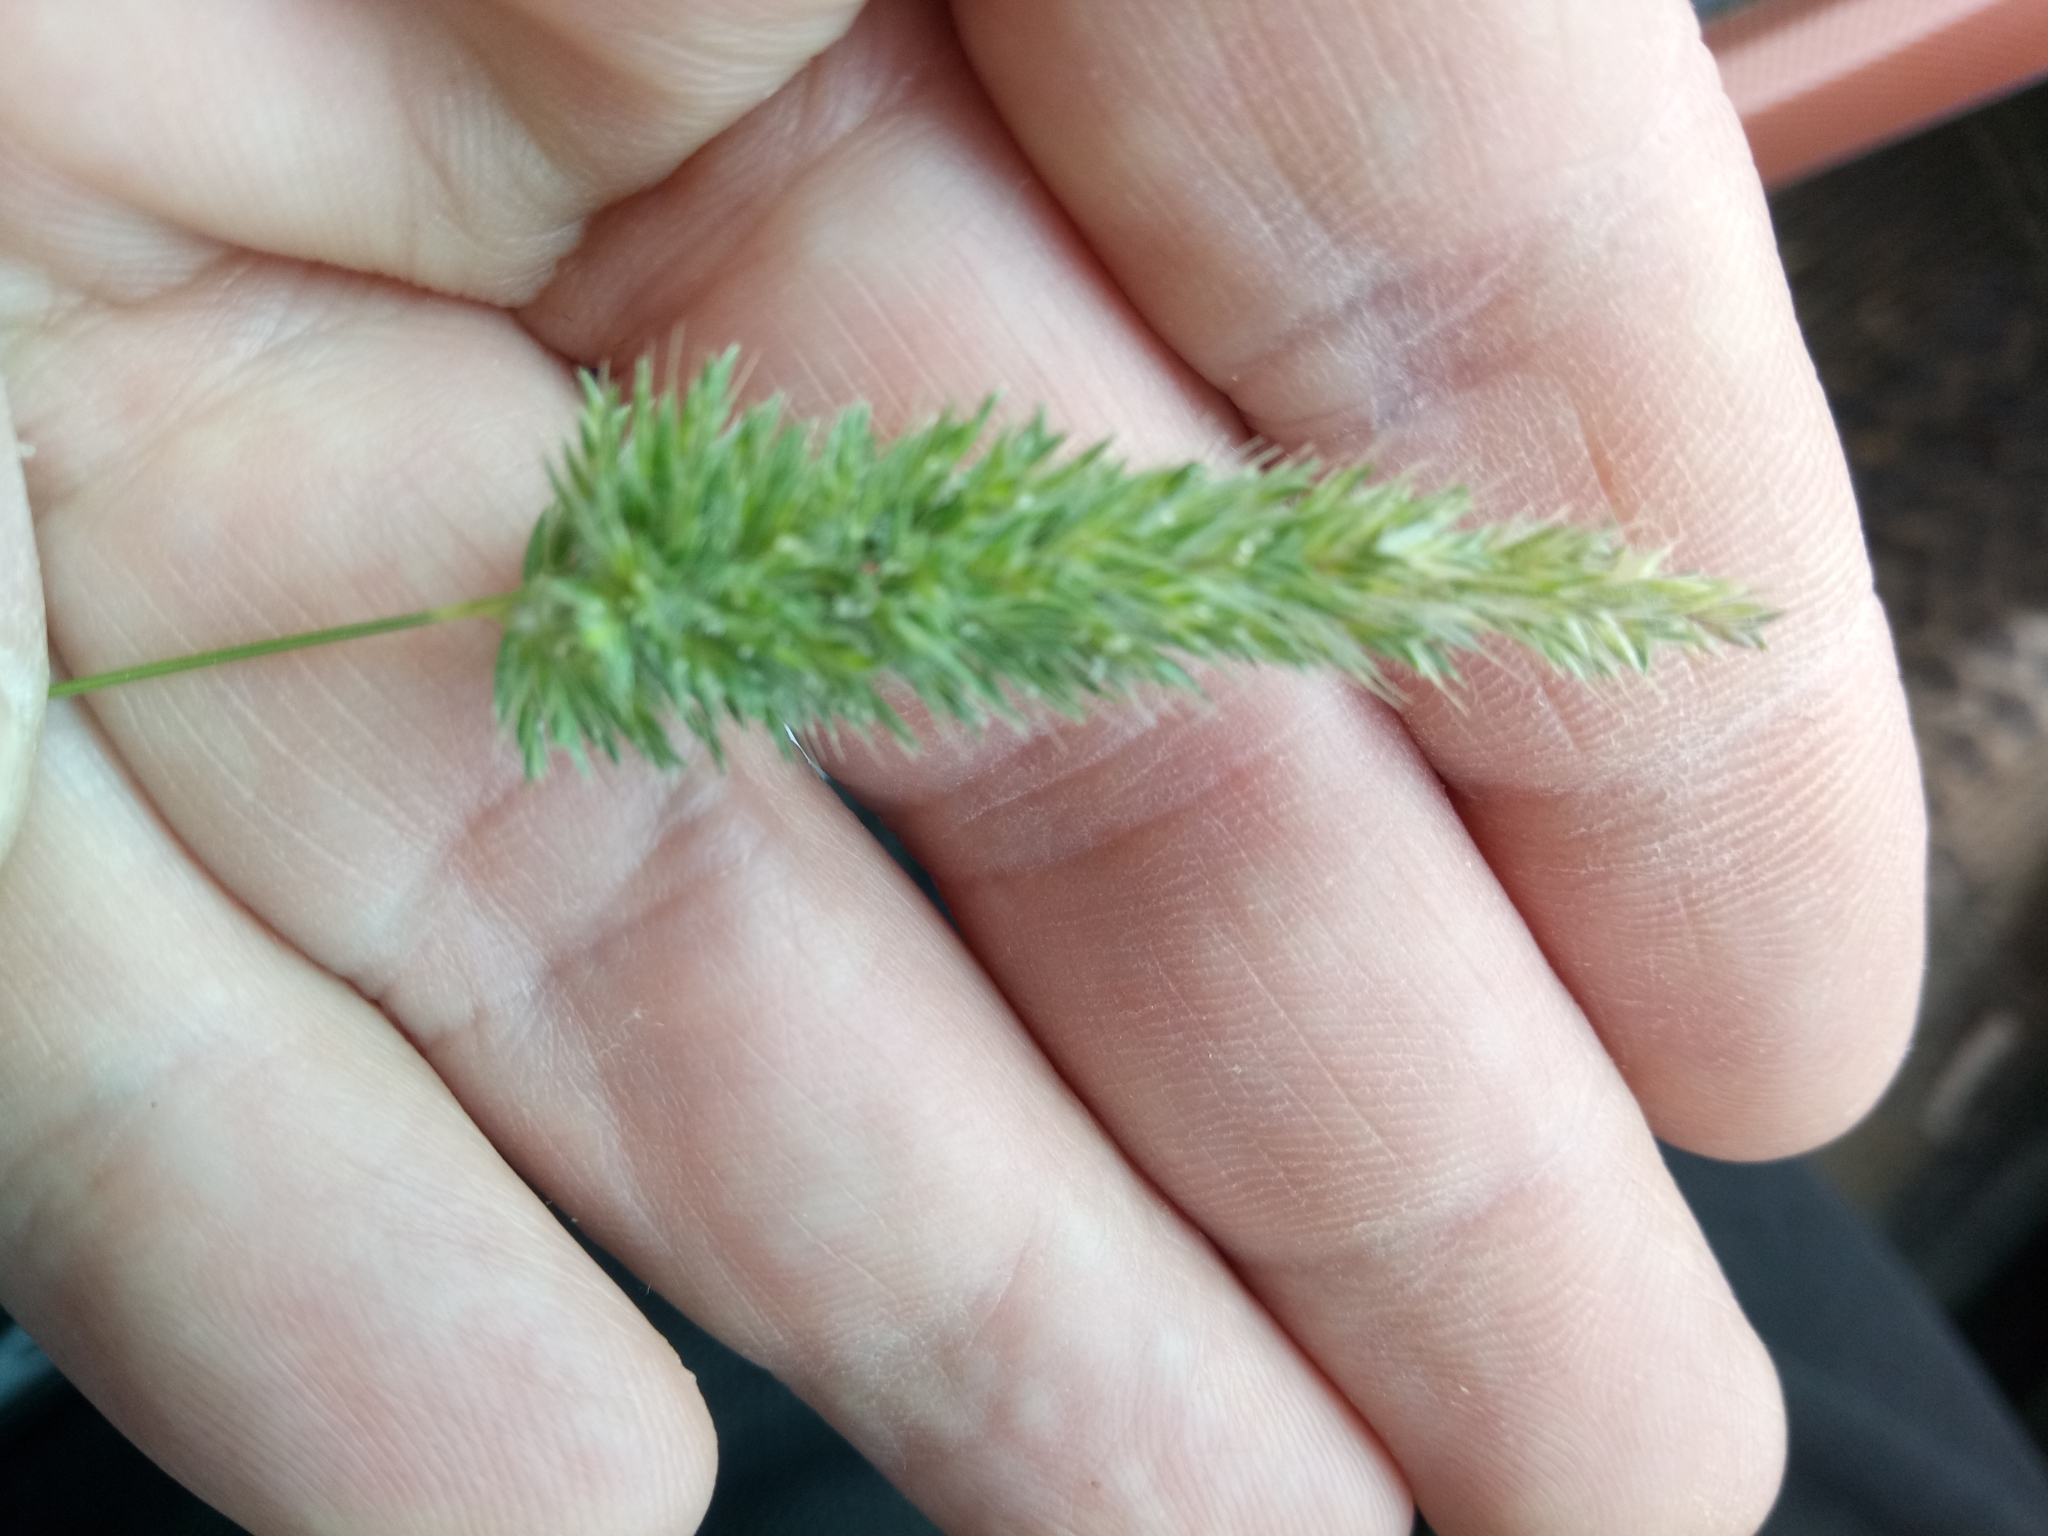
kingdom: Plantae
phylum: Tracheophyta
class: Liliopsida
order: Poales
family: Poaceae
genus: Rostraria
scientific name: Rostraria cristata
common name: Mediterranean hair-grass
